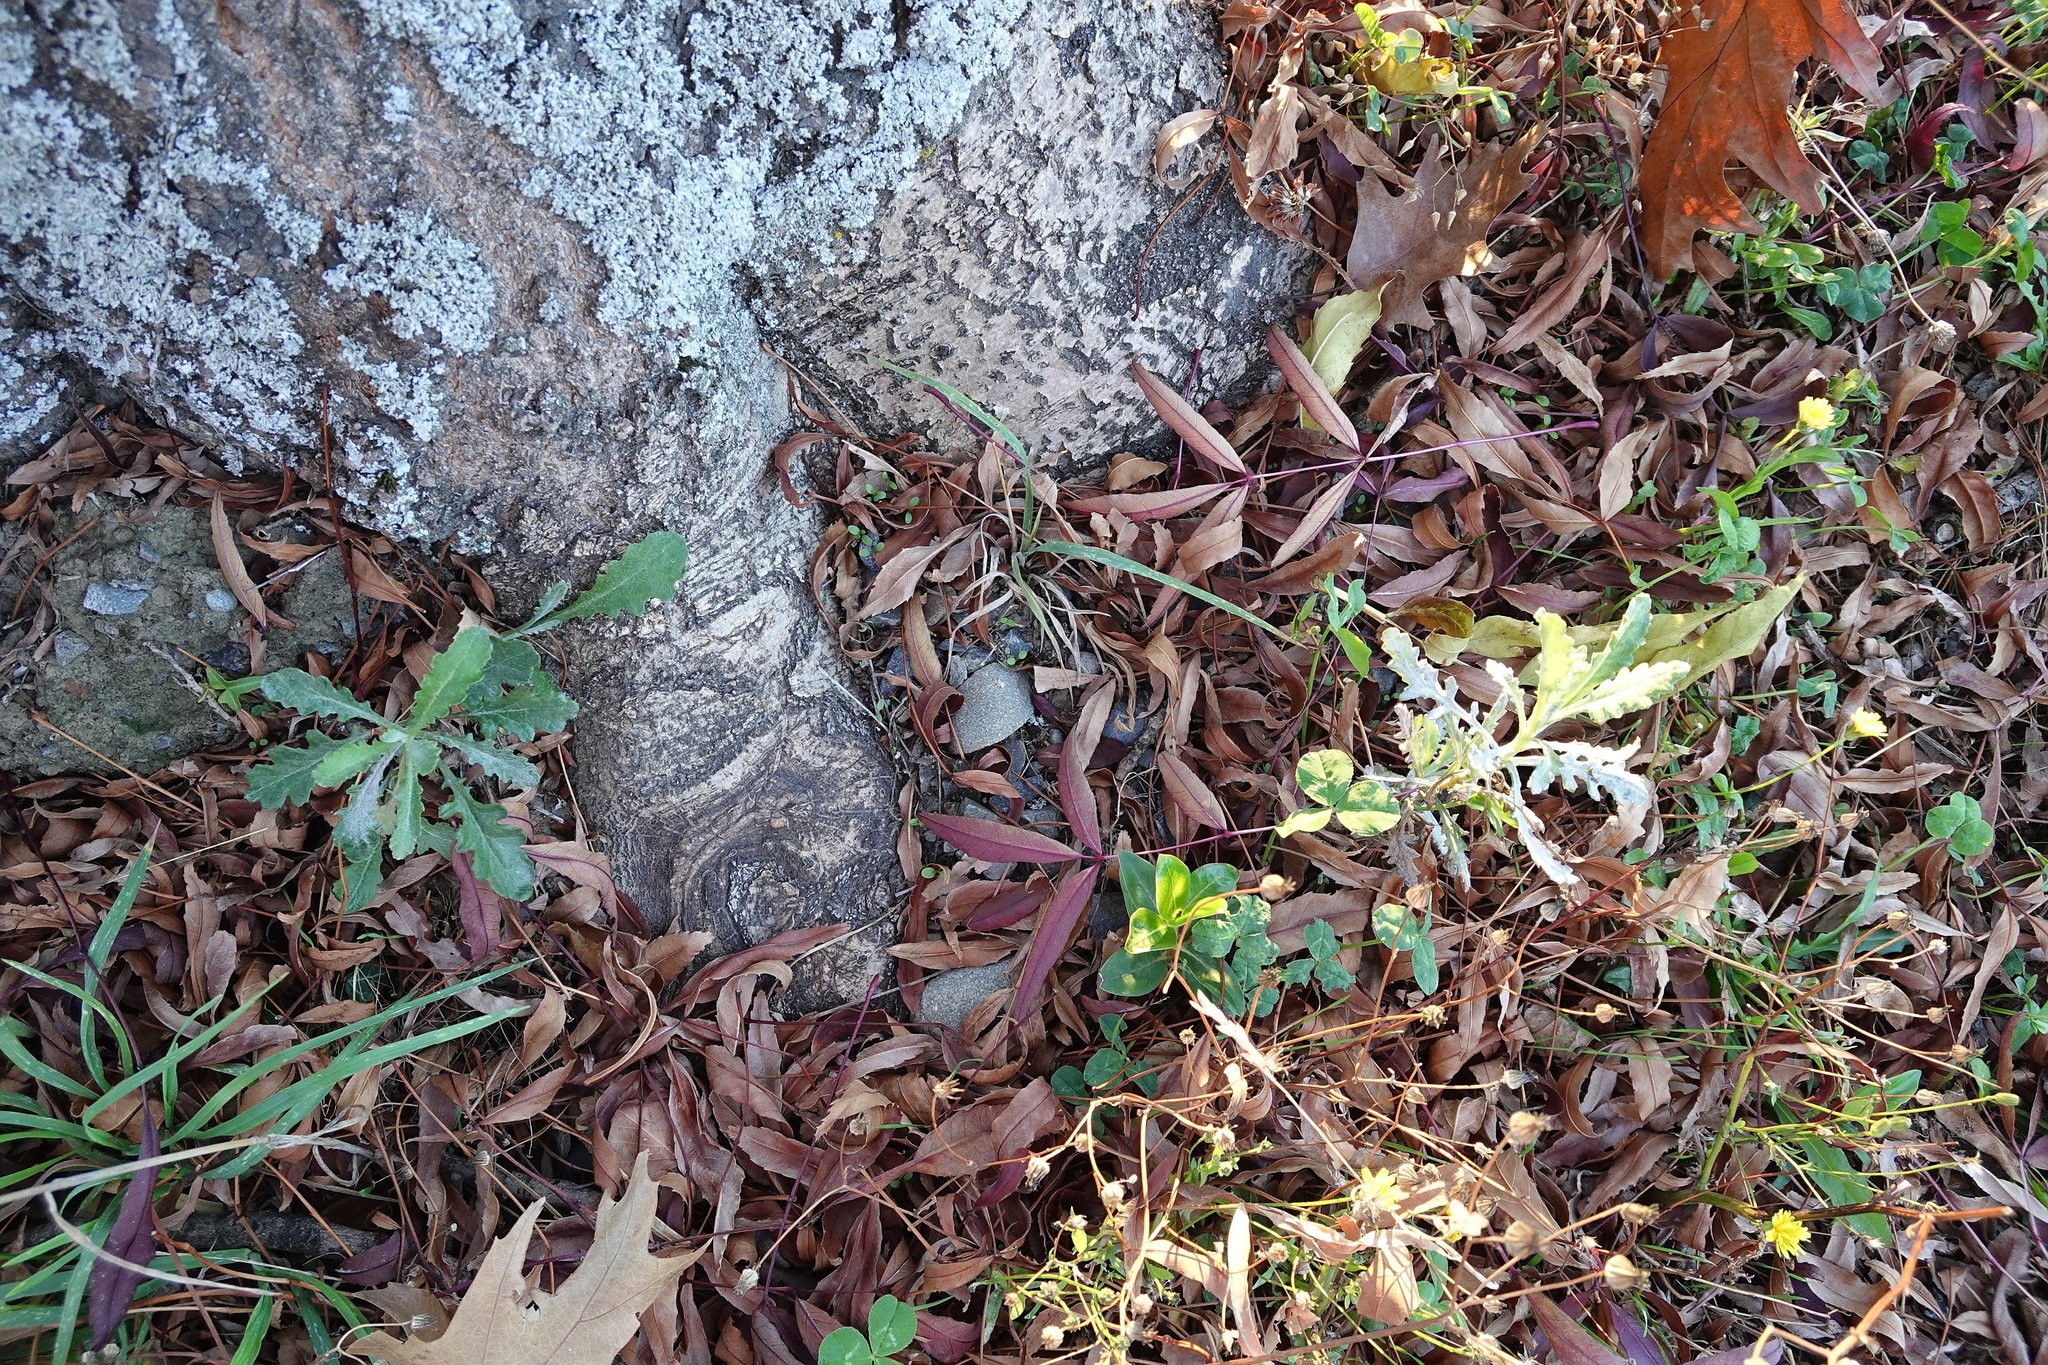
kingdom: Plantae
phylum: Tracheophyta
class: Magnoliopsida
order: Asterales
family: Asteraceae
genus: Senecio
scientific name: Senecio glomeratus
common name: Cutleaf burnweed
